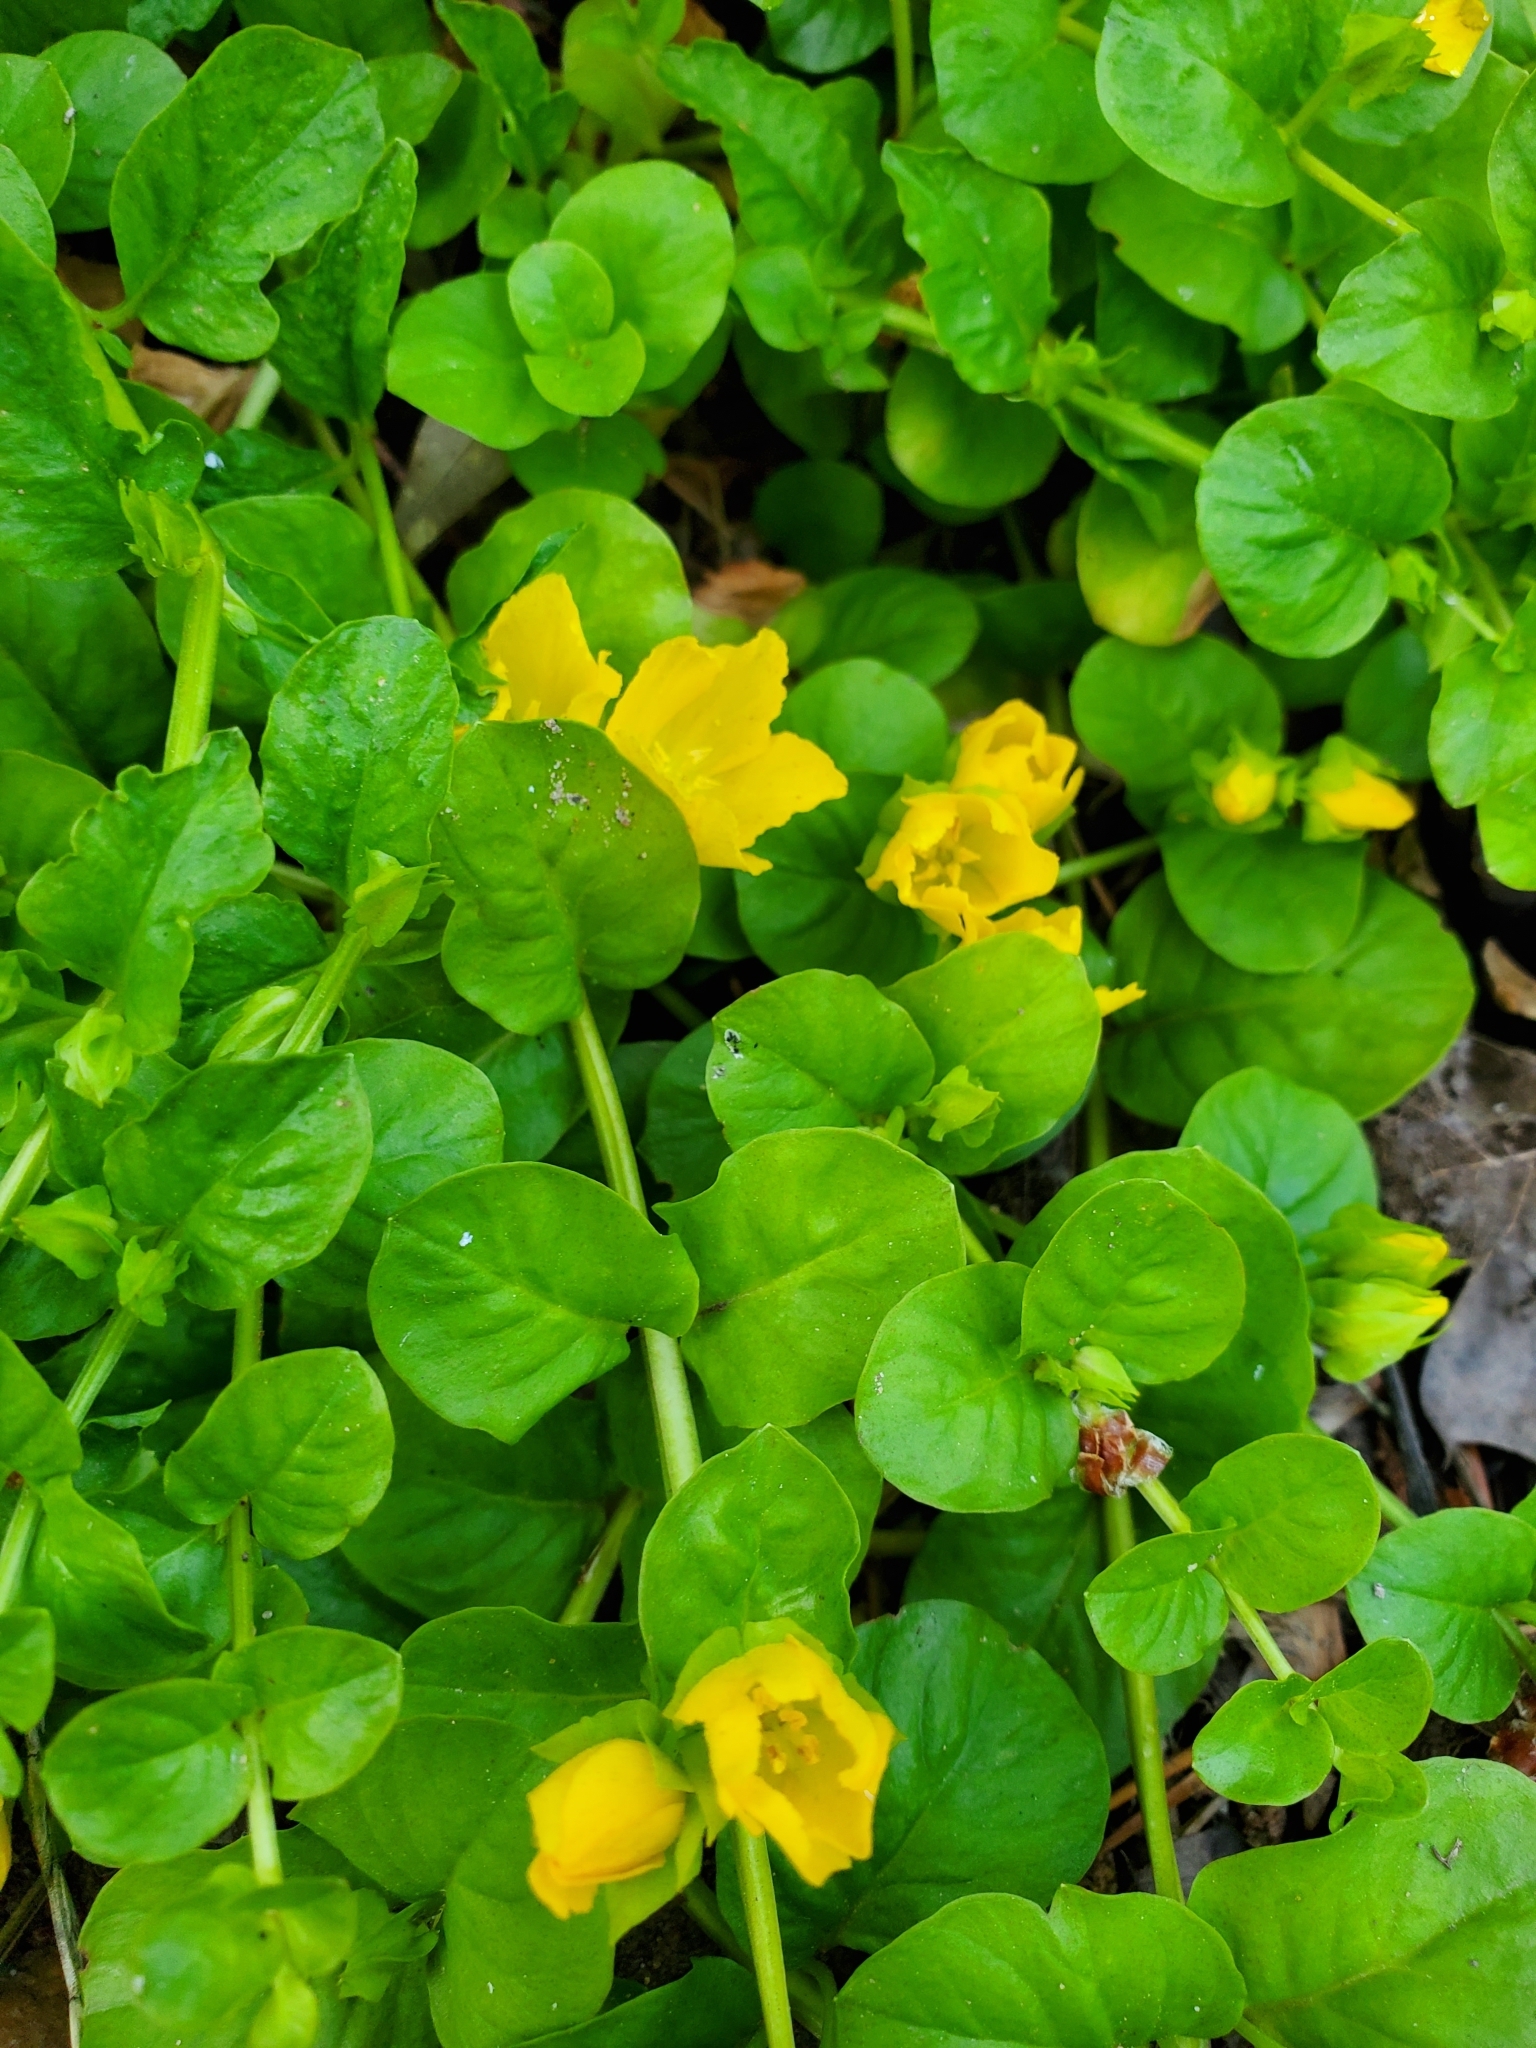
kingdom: Plantae
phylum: Tracheophyta
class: Magnoliopsida
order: Ericales
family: Primulaceae
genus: Lysimachia
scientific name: Lysimachia nummularia
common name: Moneywort
